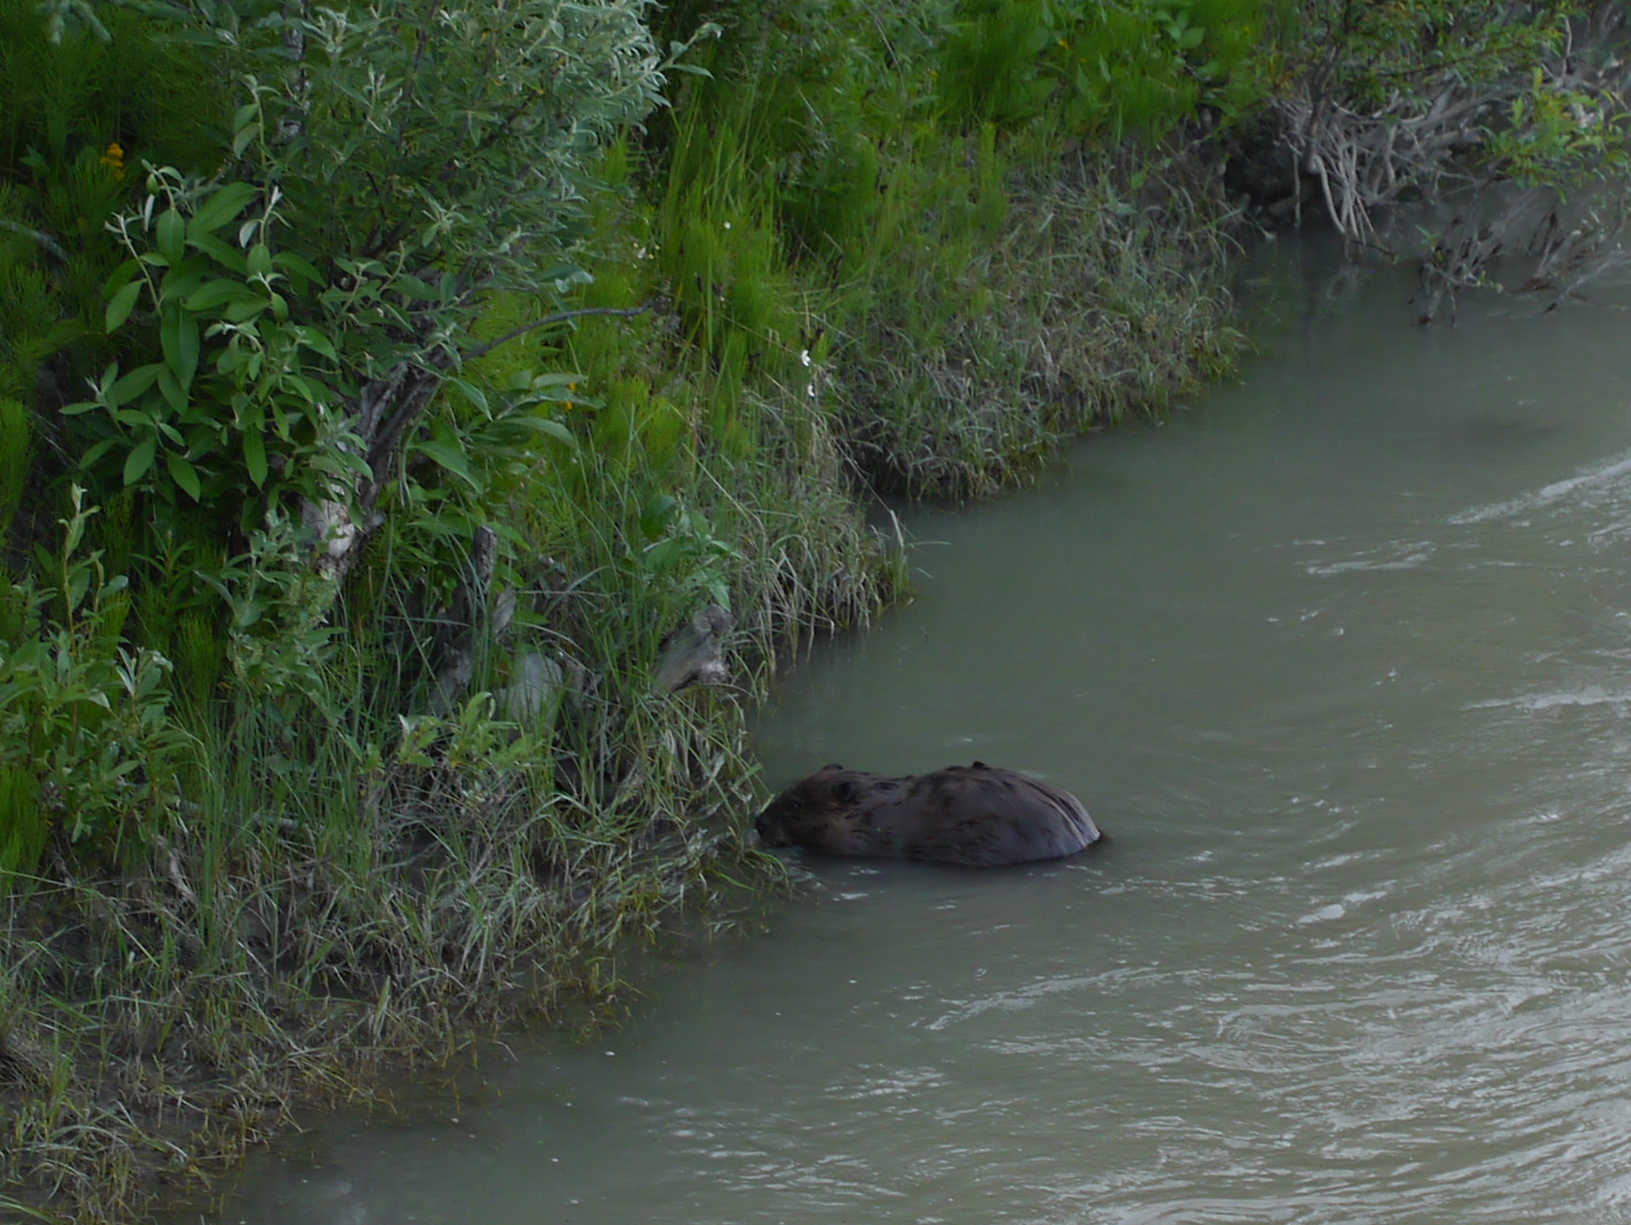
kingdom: Animalia
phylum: Chordata
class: Mammalia
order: Rodentia
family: Castoridae
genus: Castor
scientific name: Castor canadensis
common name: American beaver
